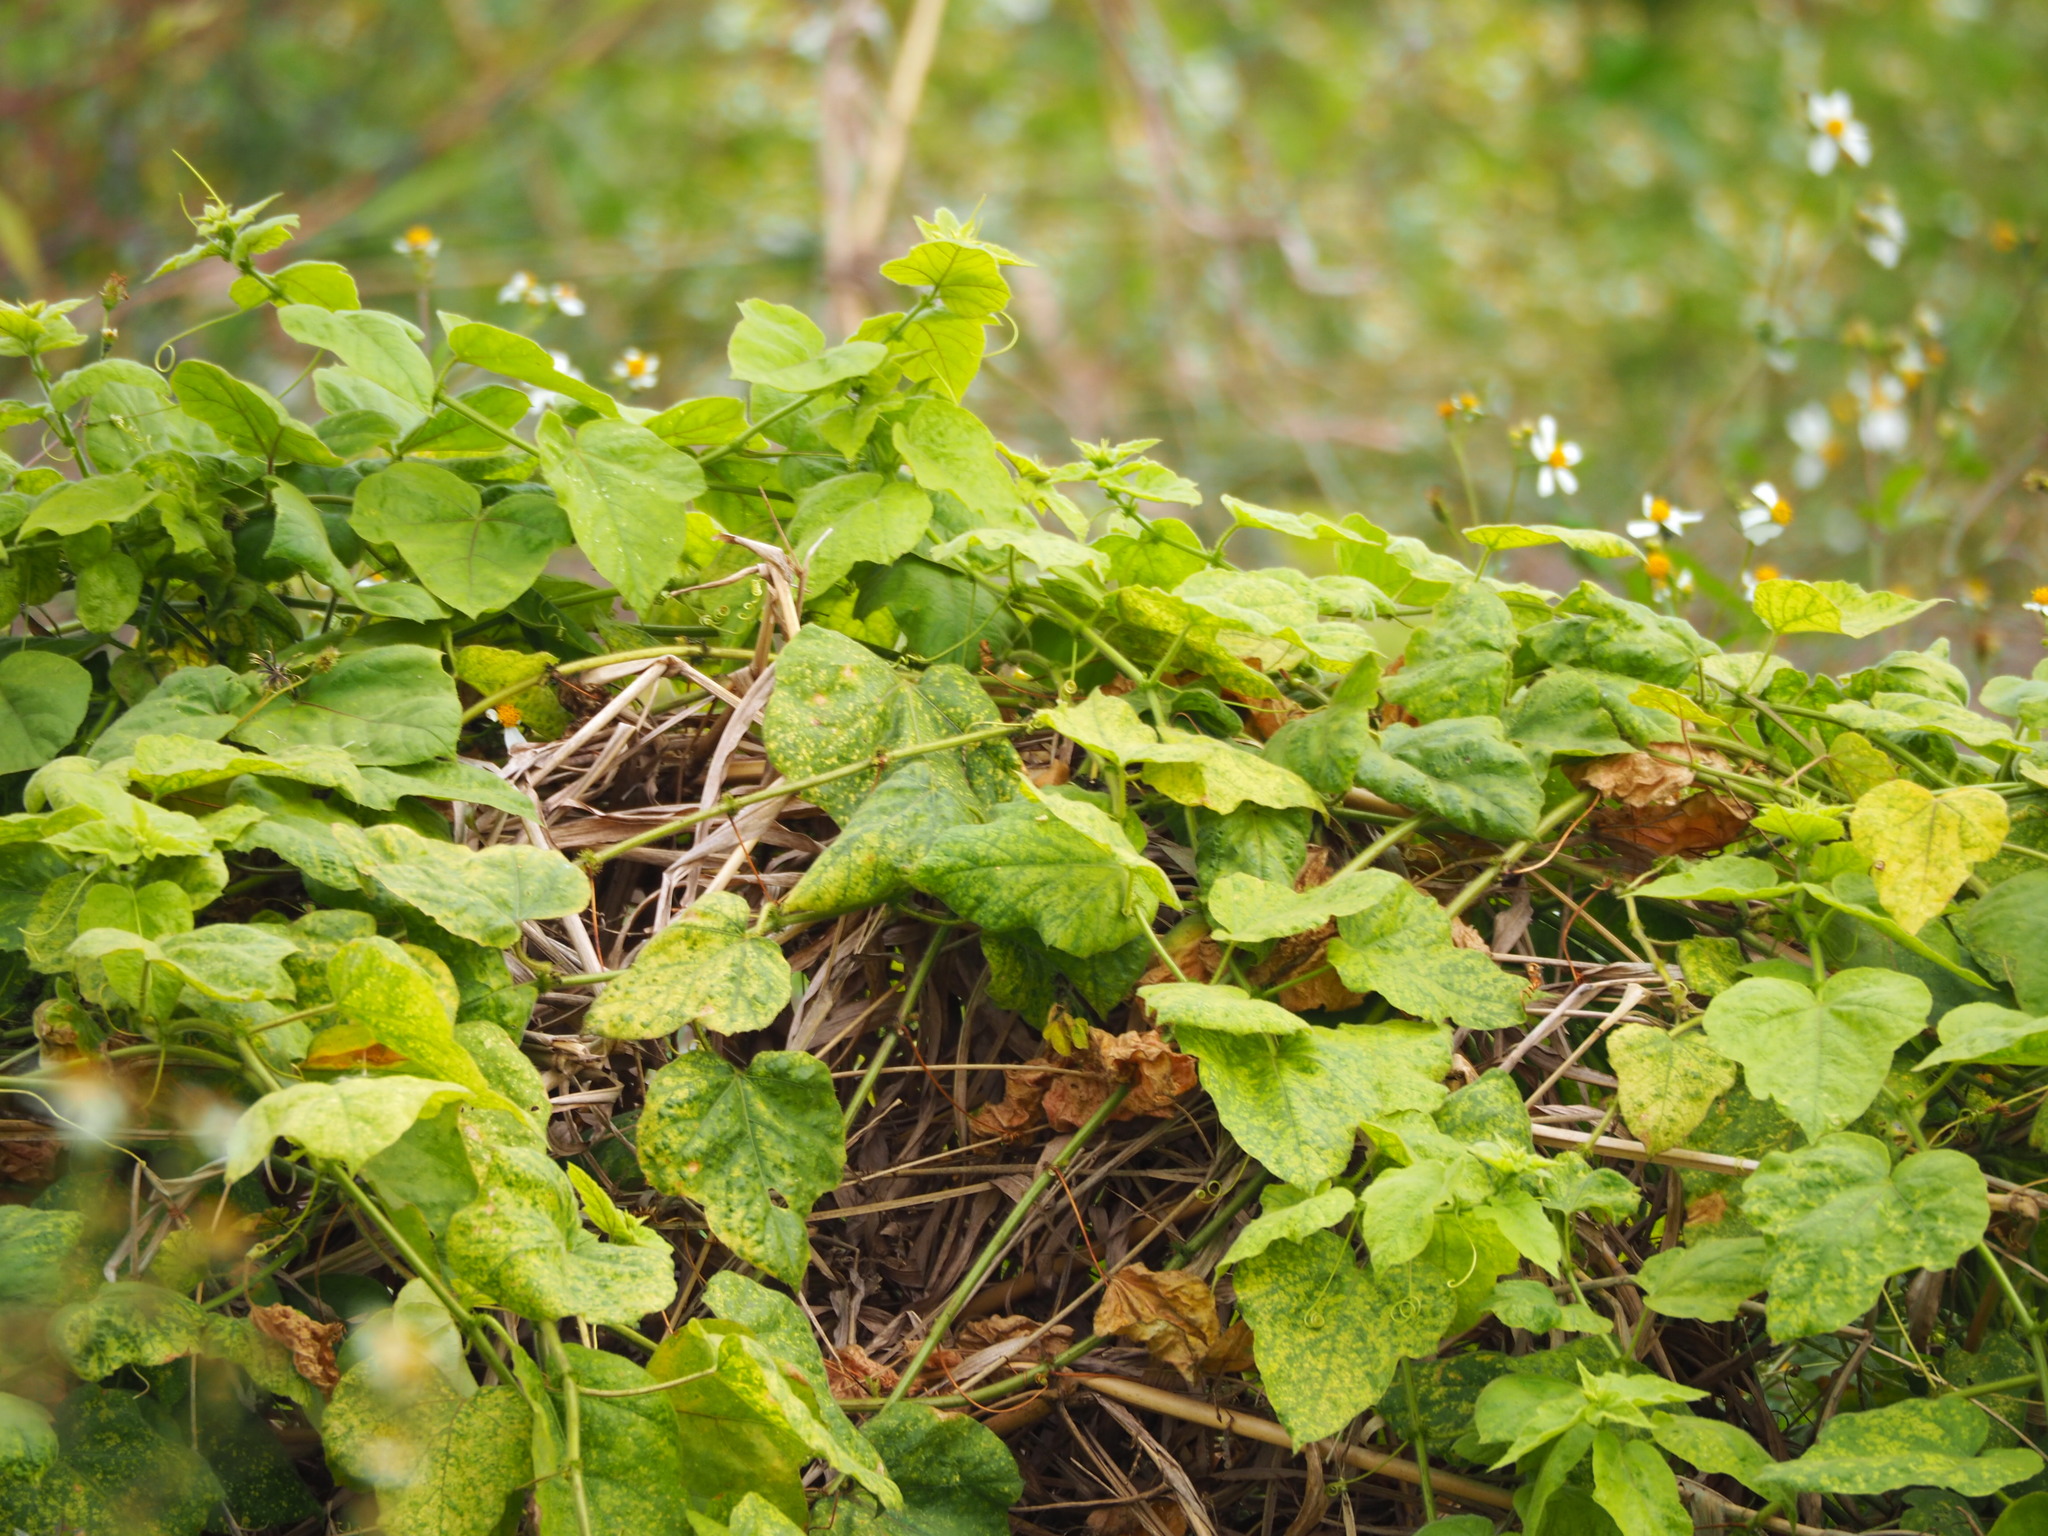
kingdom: Plantae
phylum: Tracheophyta
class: Magnoliopsida
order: Malpighiales
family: Passifloraceae
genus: Passiflora
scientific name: Passiflora vesicaria
